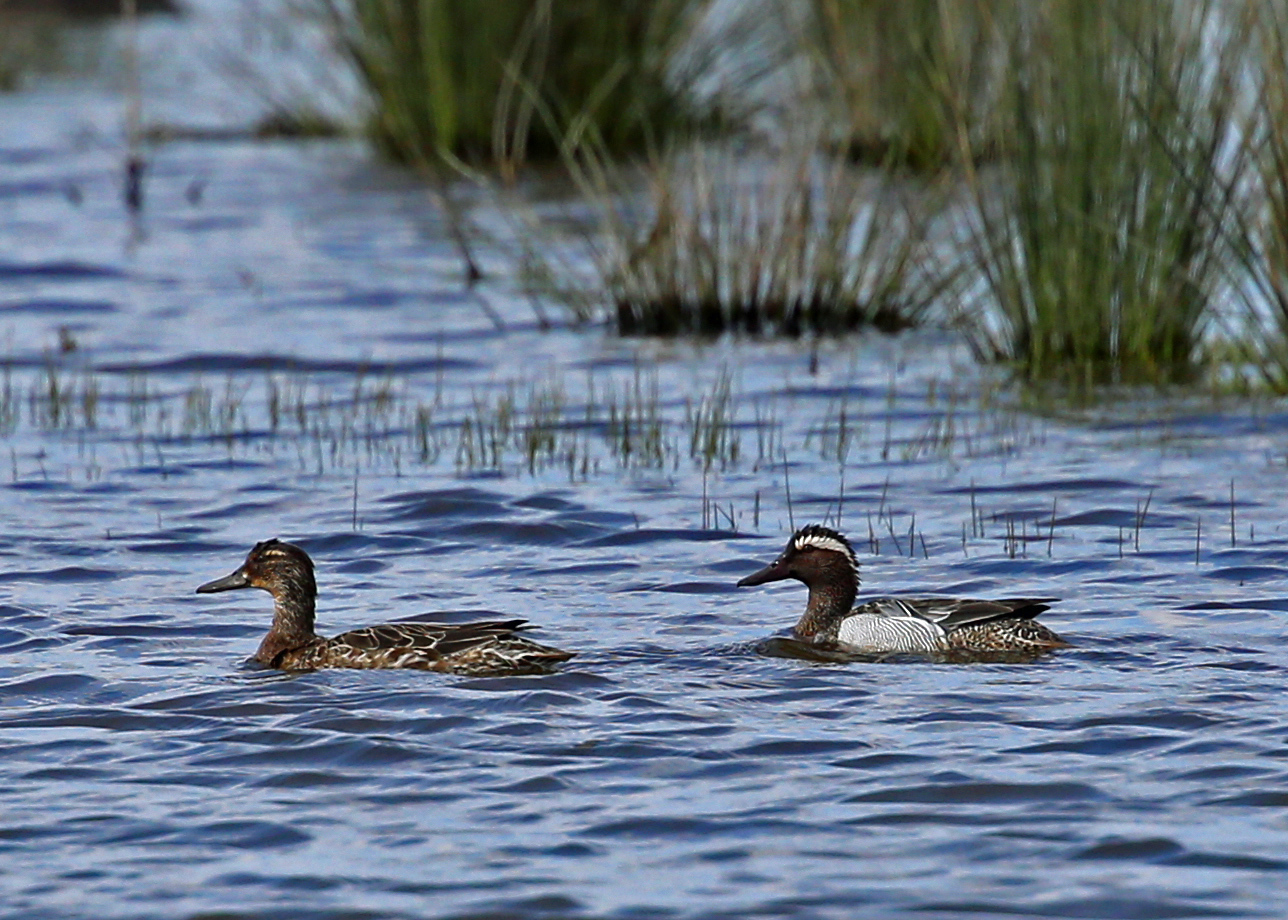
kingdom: Animalia
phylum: Chordata
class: Aves
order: Anseriformes
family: Anatidae
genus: Spatula
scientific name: Spatula querquedula
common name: Garganey
